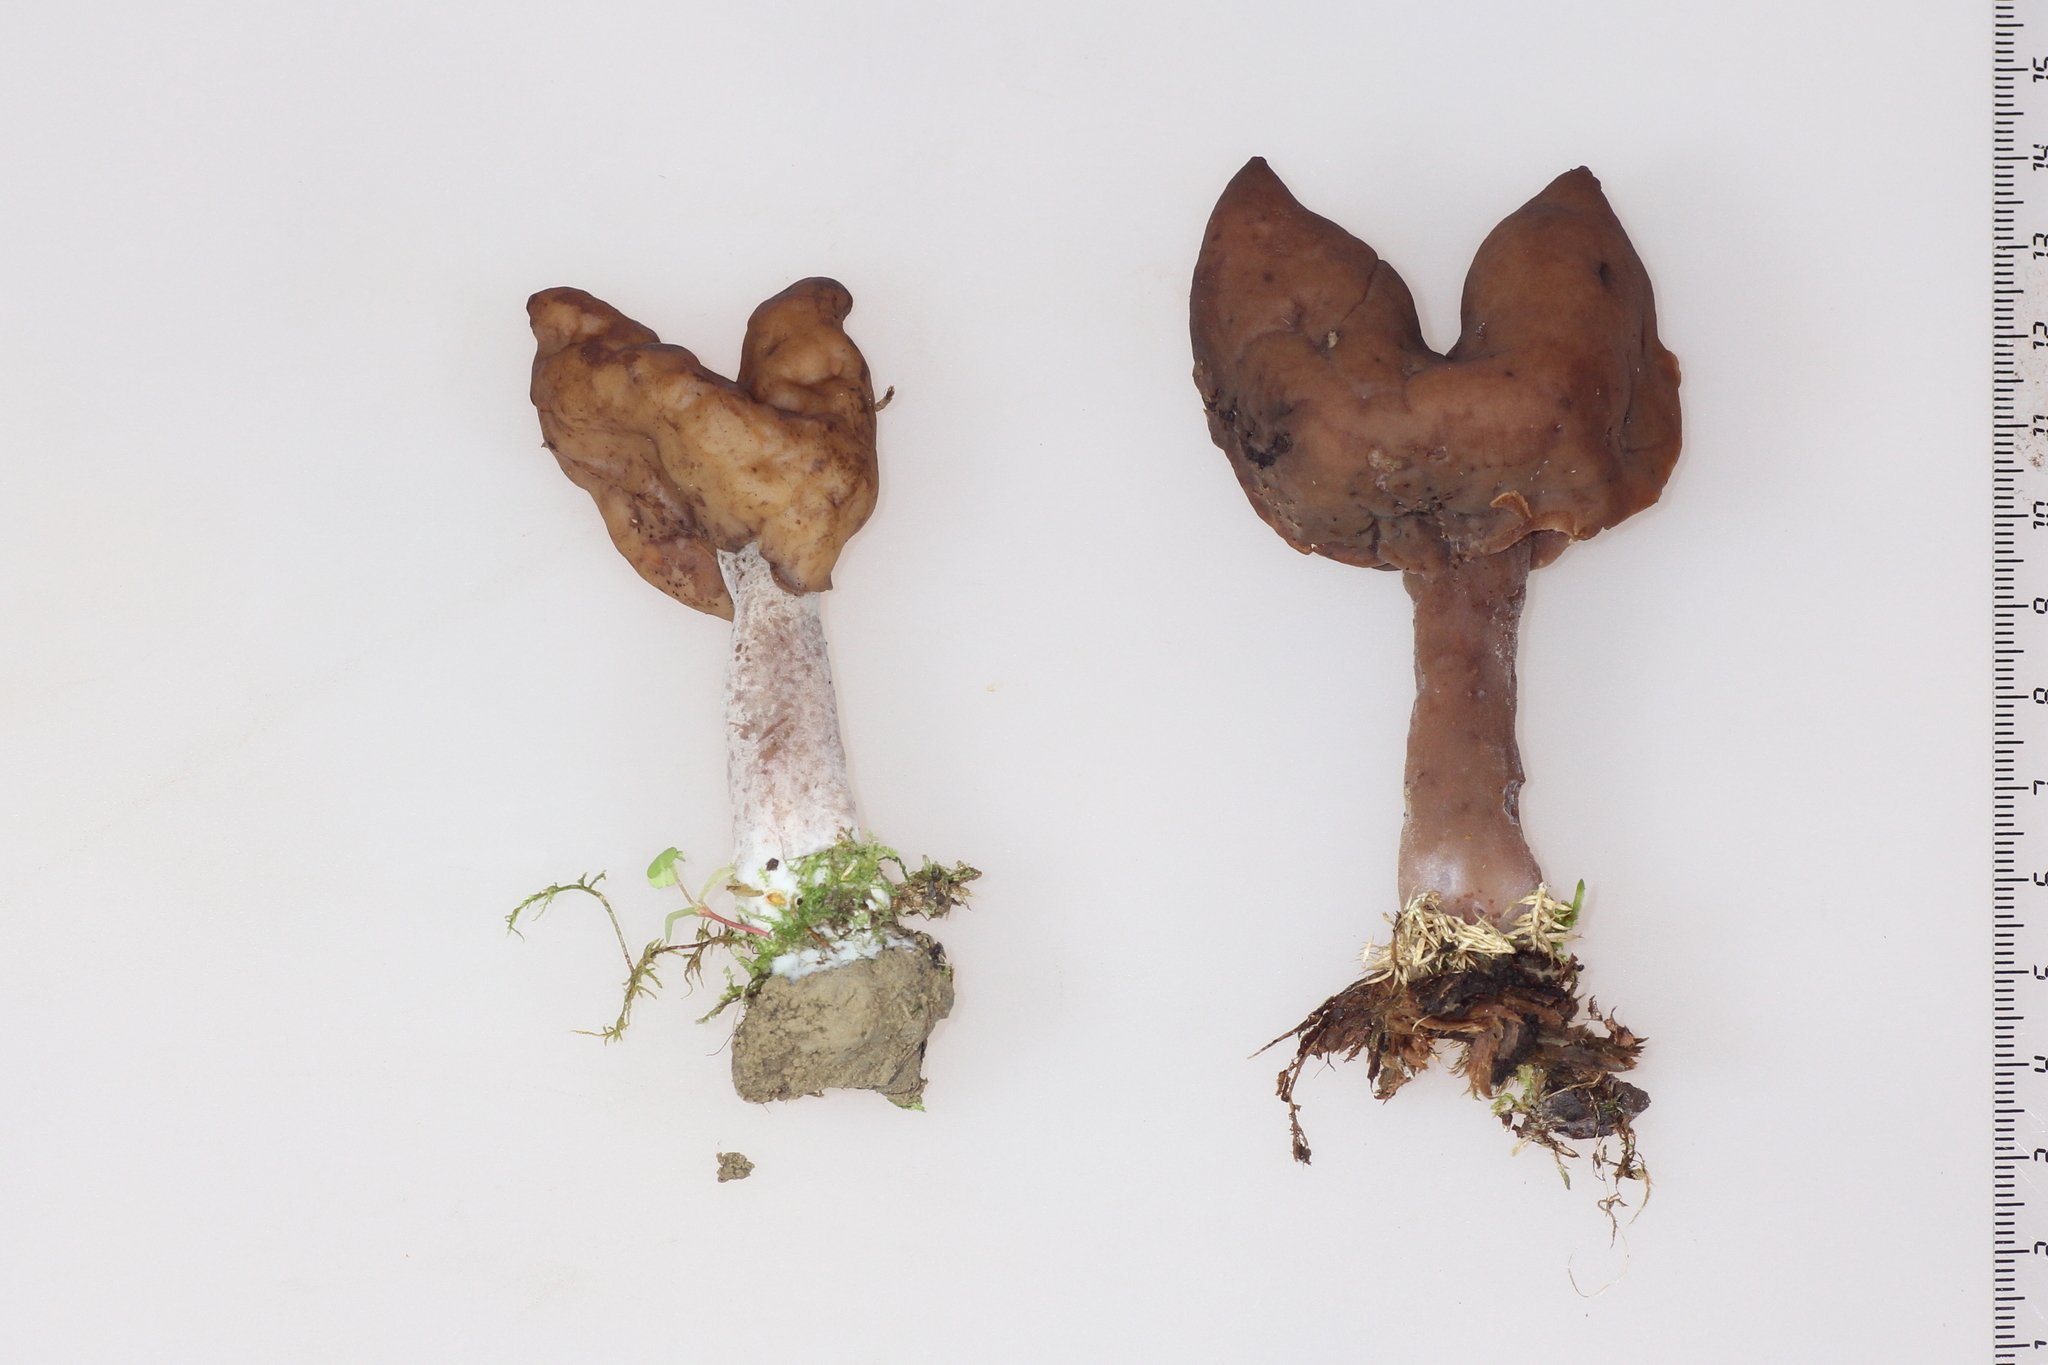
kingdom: Fungi
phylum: Ascomycota
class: Pezizomycetes
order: Pezizales
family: Discinaceae
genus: Gyromitra
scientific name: Gyromitra infula
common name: Pouched false morel
